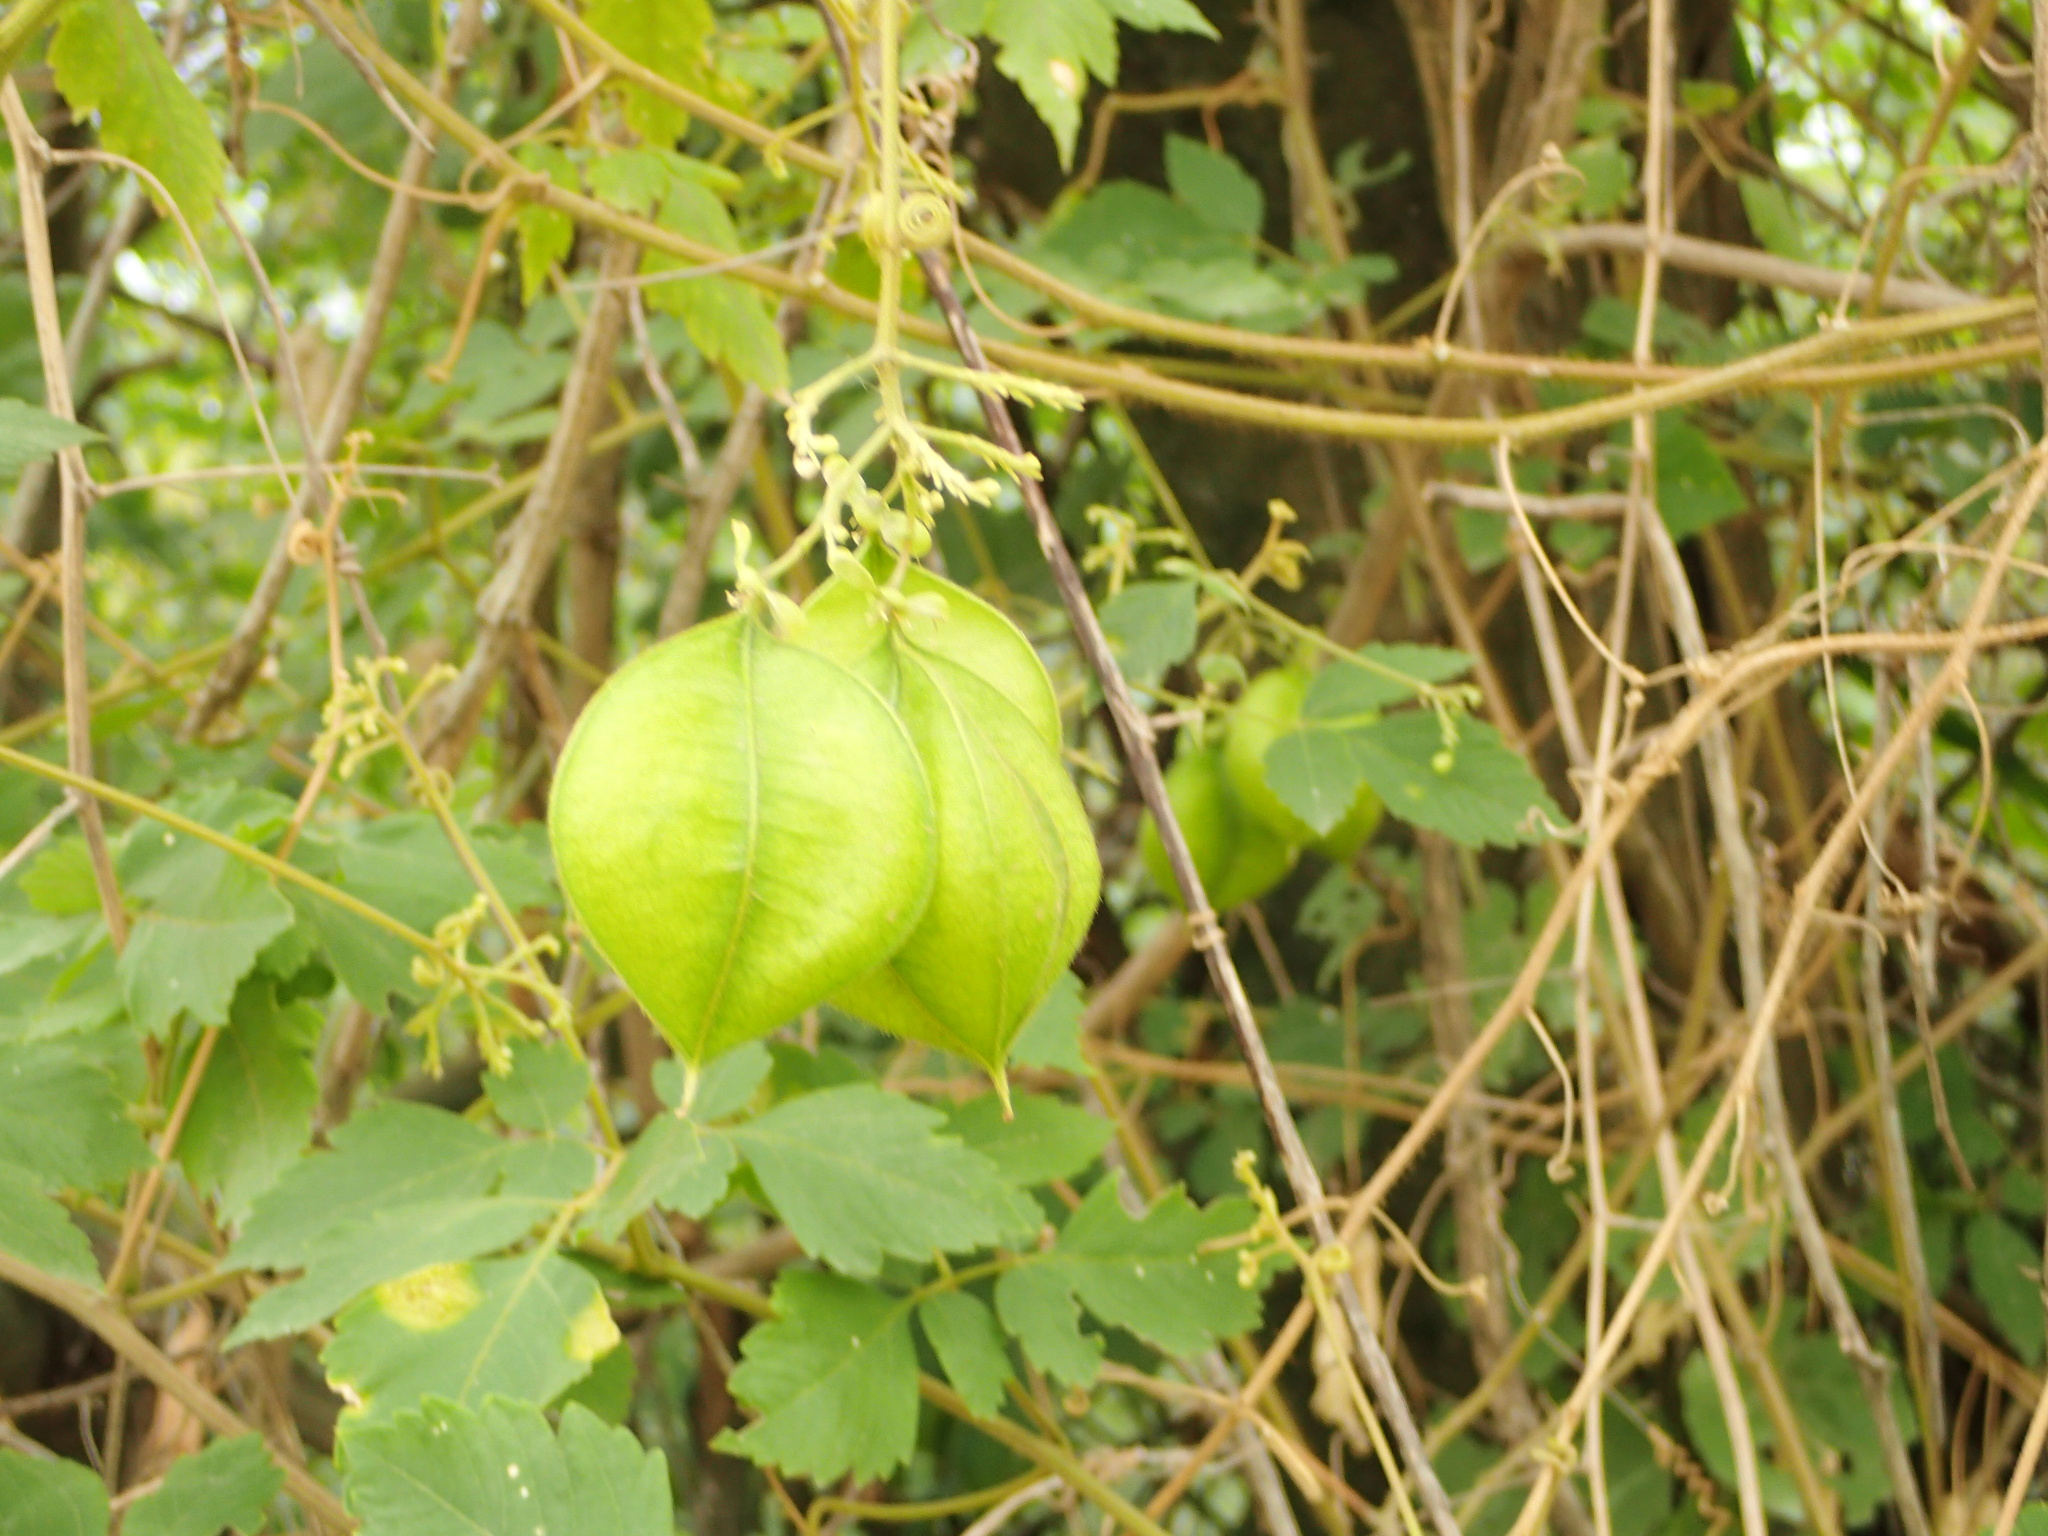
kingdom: Plantae
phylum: Tracheophyta
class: Magnoliopsida
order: Sapindales
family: Sapindaceae
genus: Cardiospermum
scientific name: Cardiospermum grandiflorum
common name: Balloon vine
